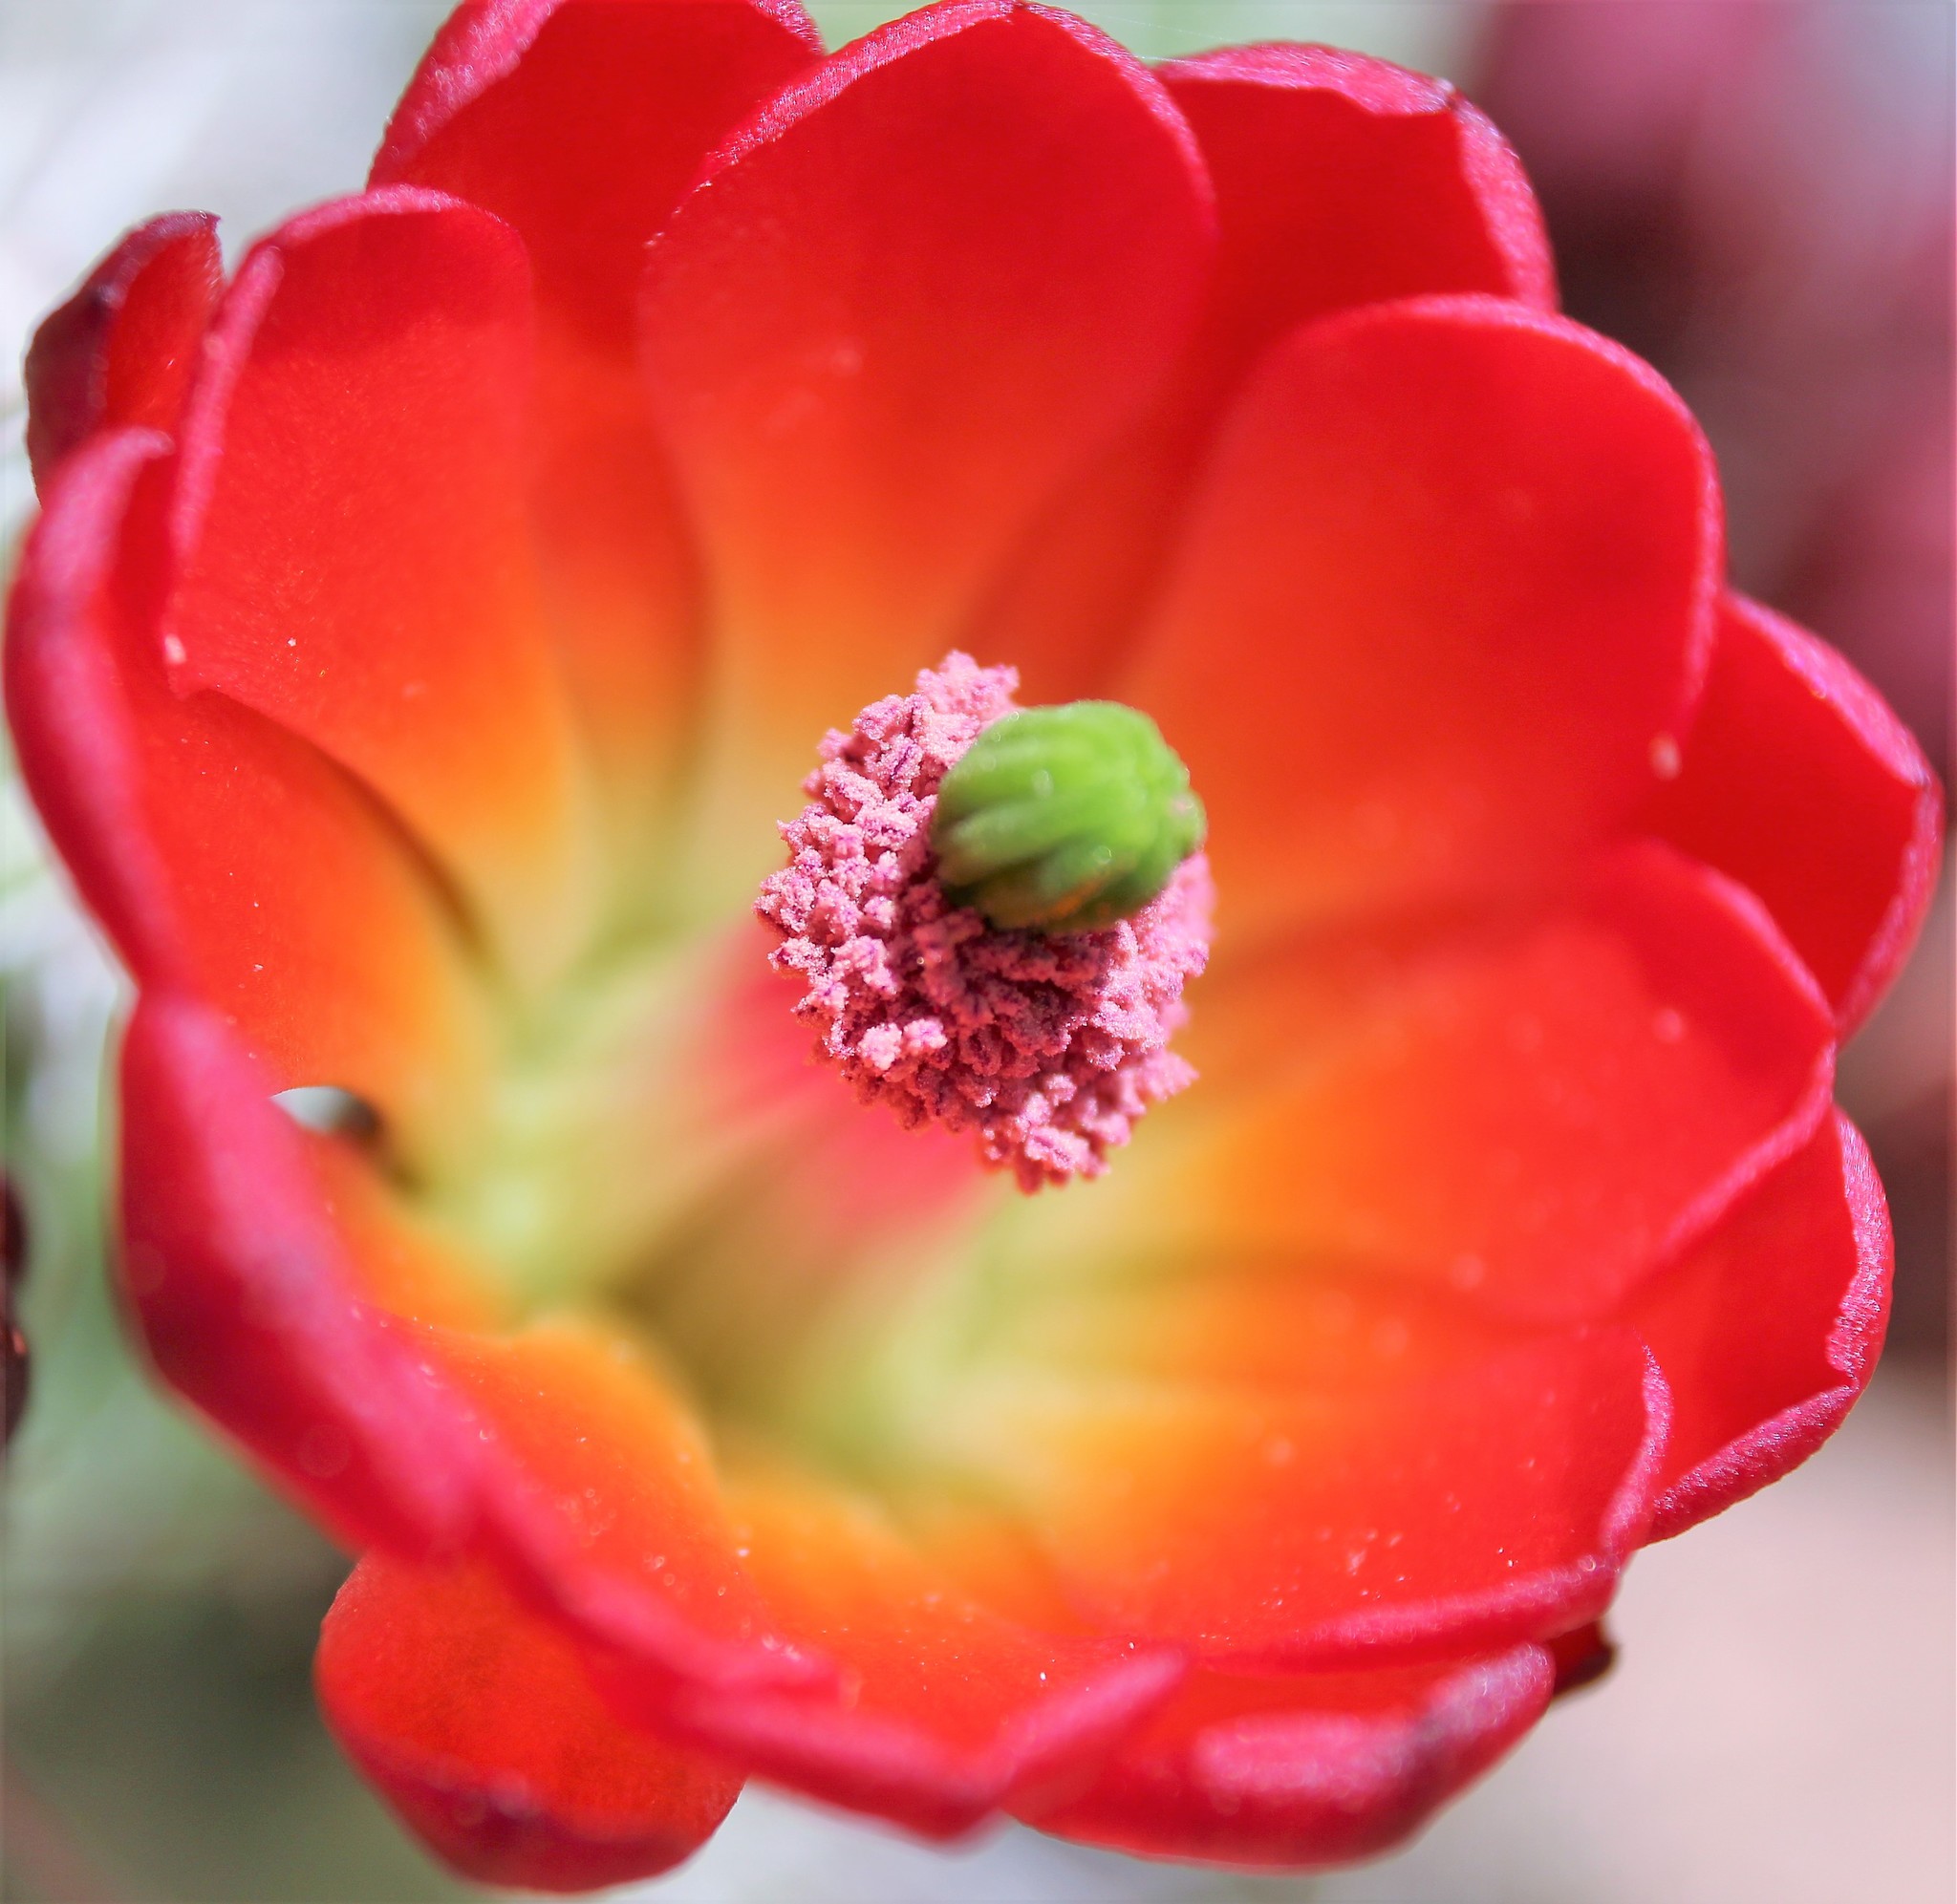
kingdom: Plantae
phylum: Tracheophyta
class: Magnoliopsida
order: Caryophyllales
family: Cactaceae
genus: Echinocereus
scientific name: Echinocereus triglochidiatus
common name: Claretcup hedgehog
